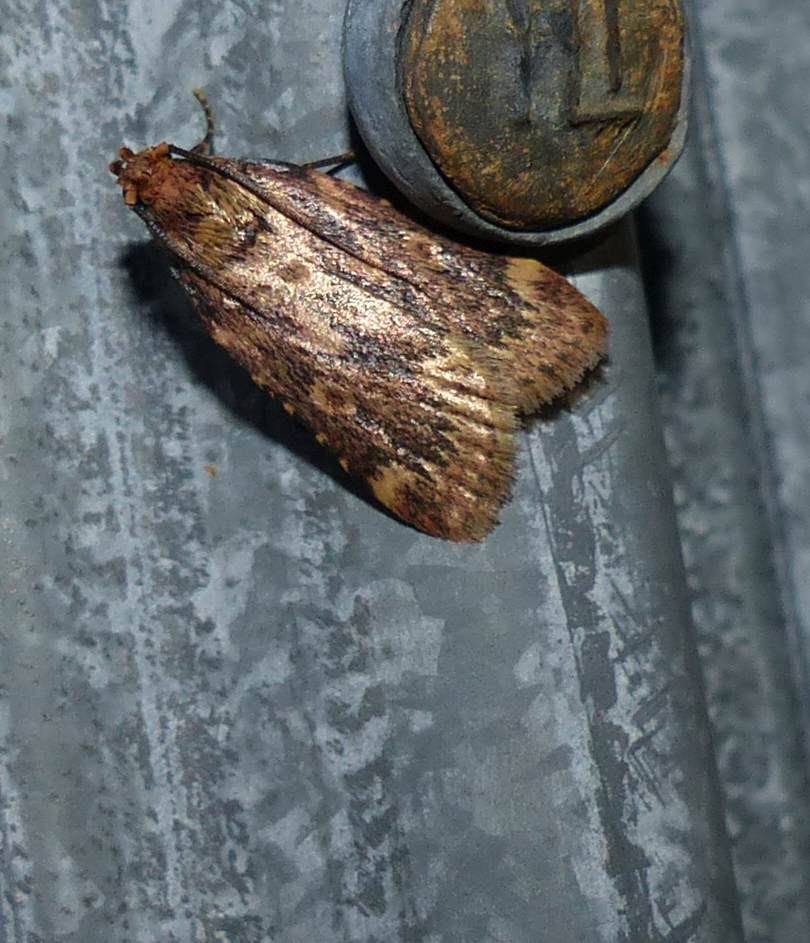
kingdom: Animalia
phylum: Arthropoda
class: Insecta
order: Lepidoptera
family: Pyralidae
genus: Aglossa
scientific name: Aglossa cuprina
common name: Grease moth
